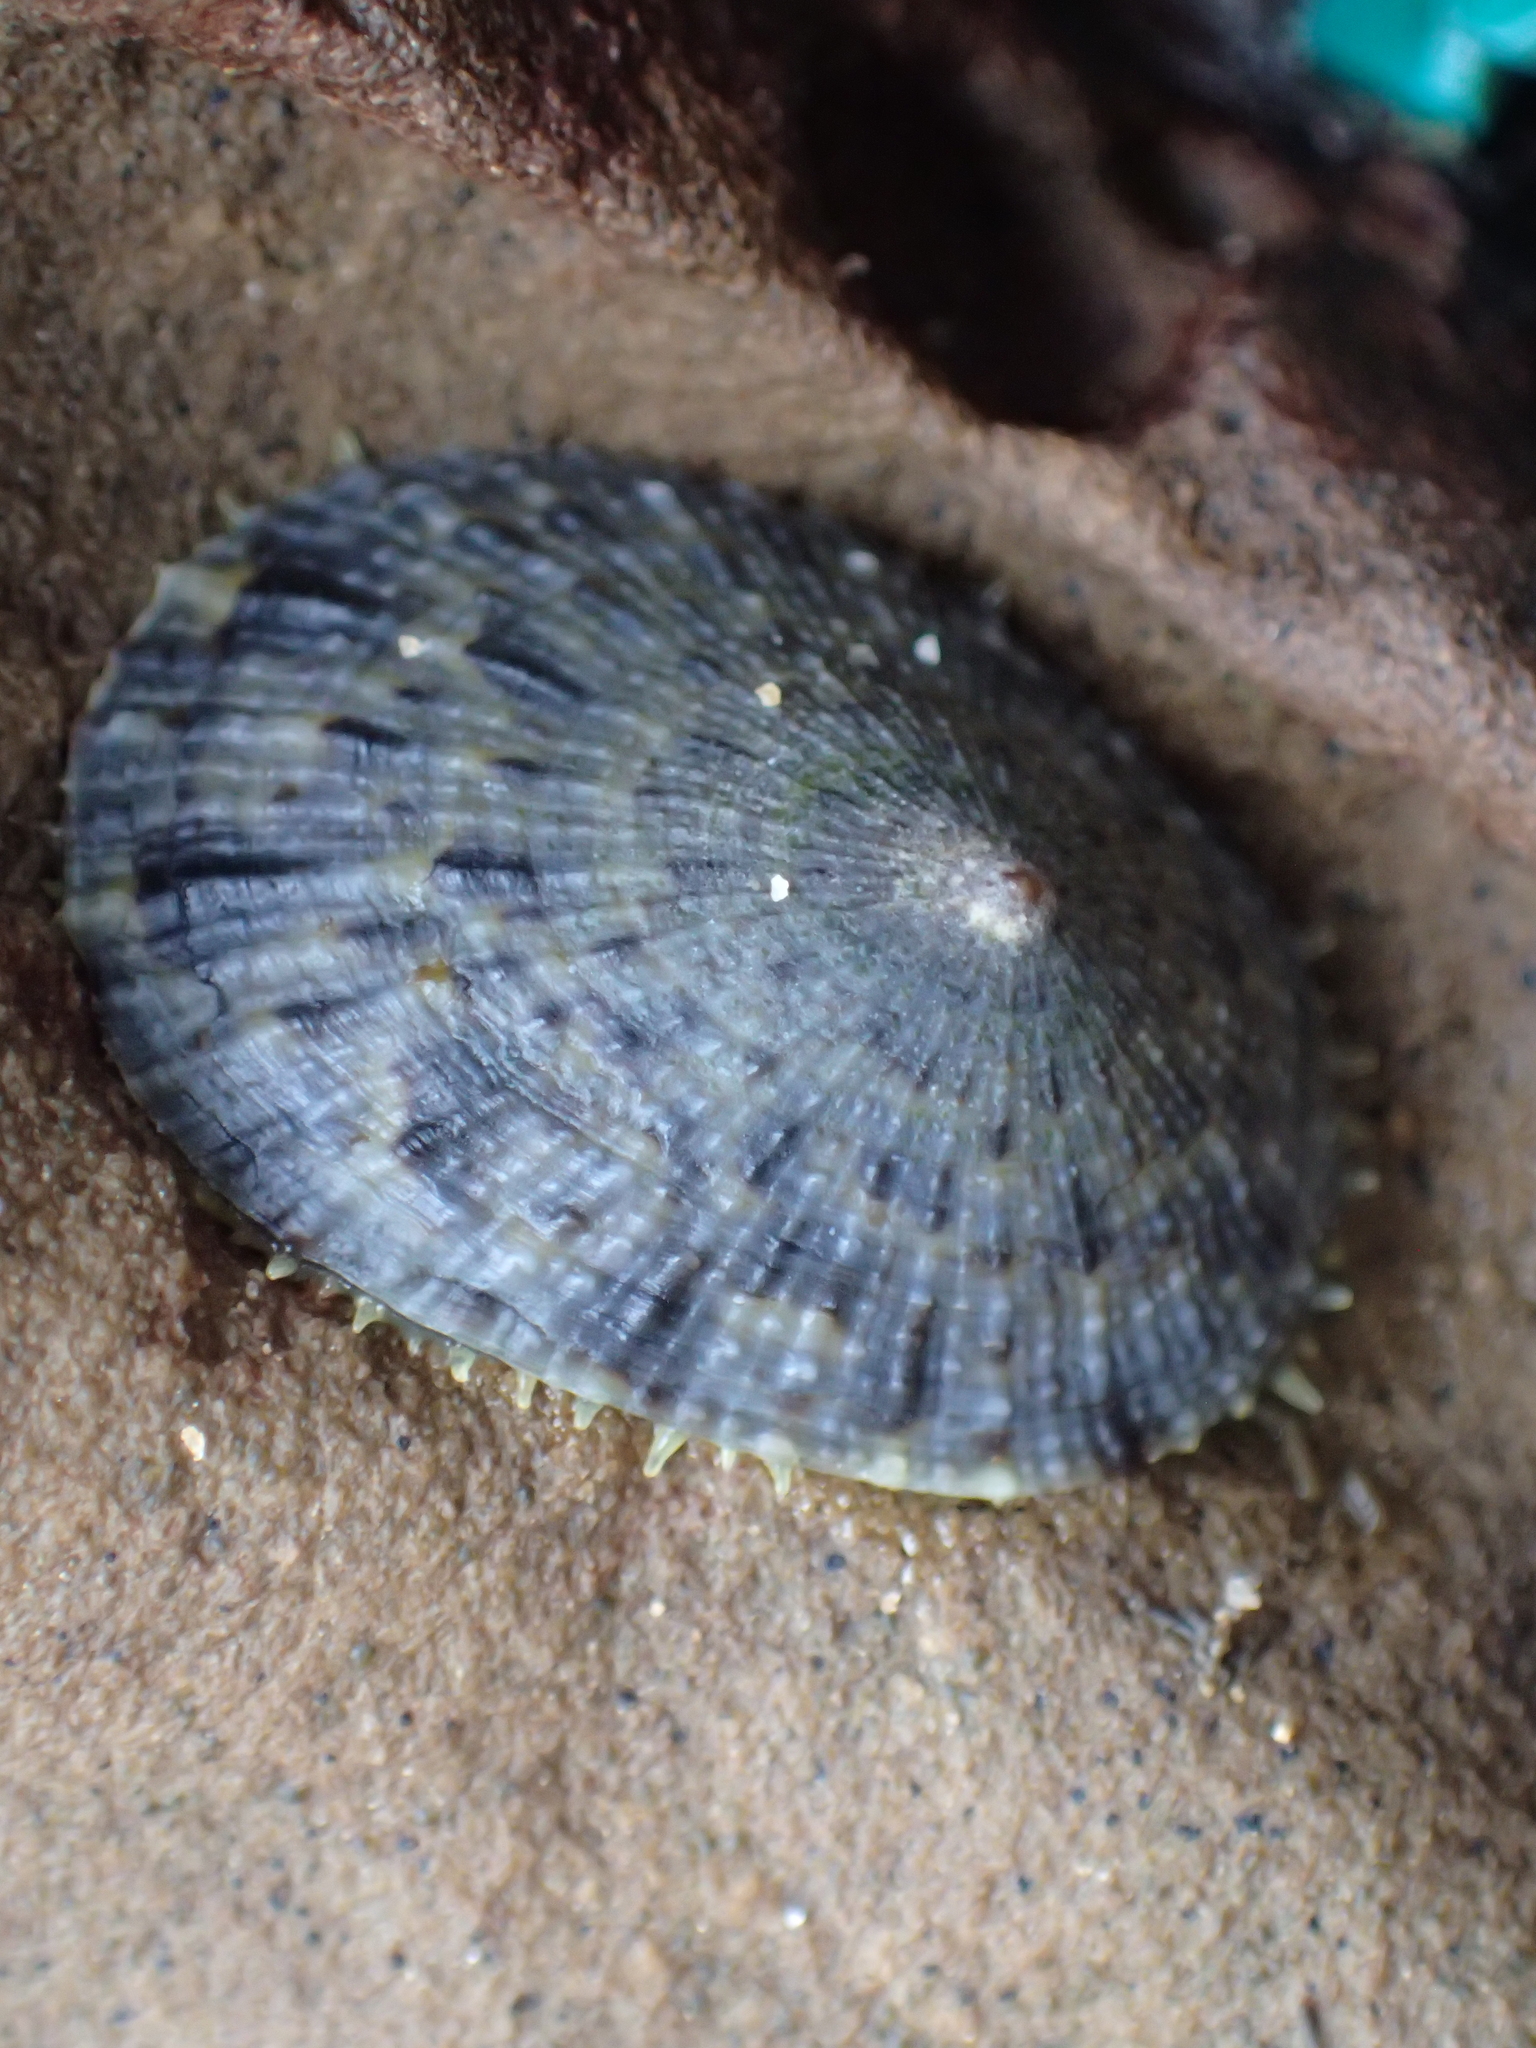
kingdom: Animalia
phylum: Mollusca
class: Gastropoda
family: Nacellidae
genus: Cellana
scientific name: Cellana toreuma
